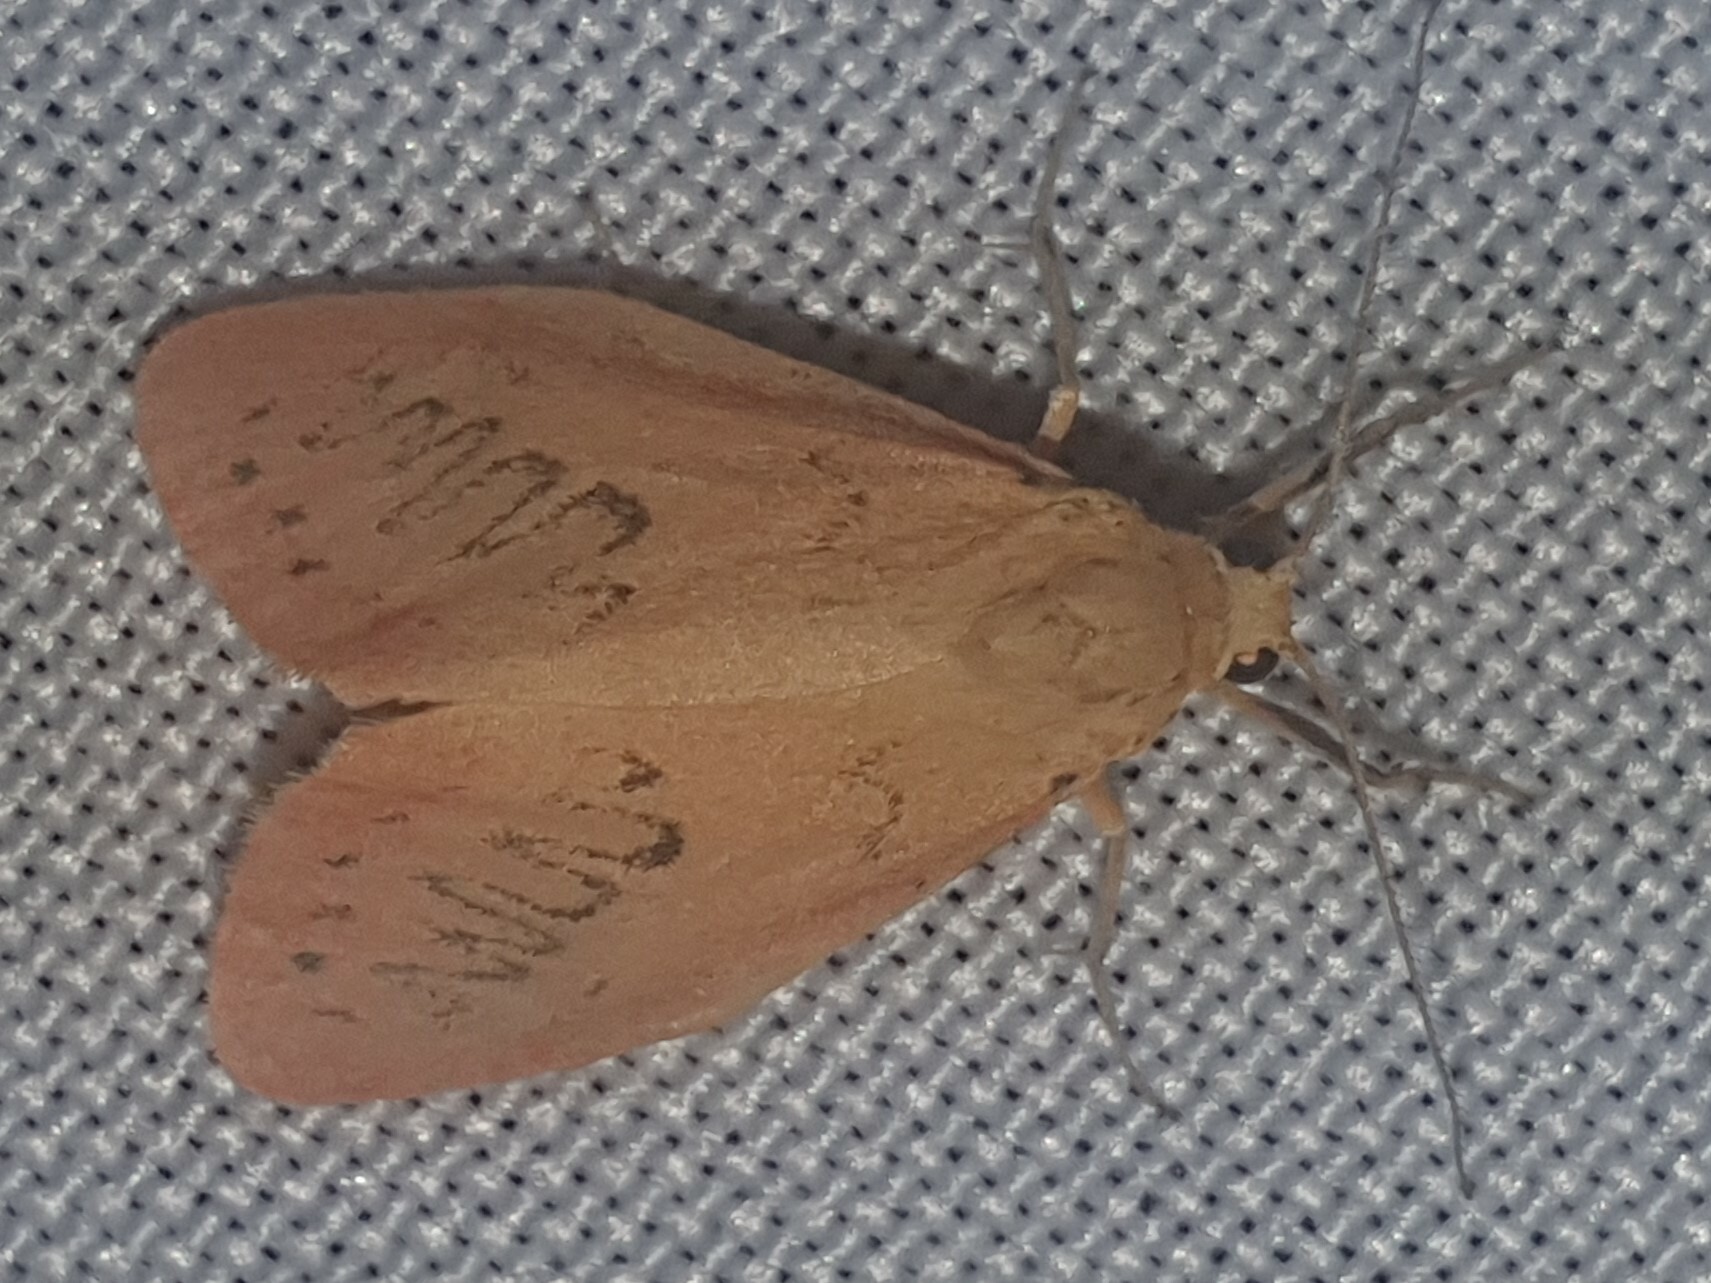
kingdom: Animalia
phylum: Arthropoda
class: Insecta
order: Lepidoptera
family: Erebidae
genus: Miltochrista
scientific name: Miltochrista miniata
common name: Rosy footman
